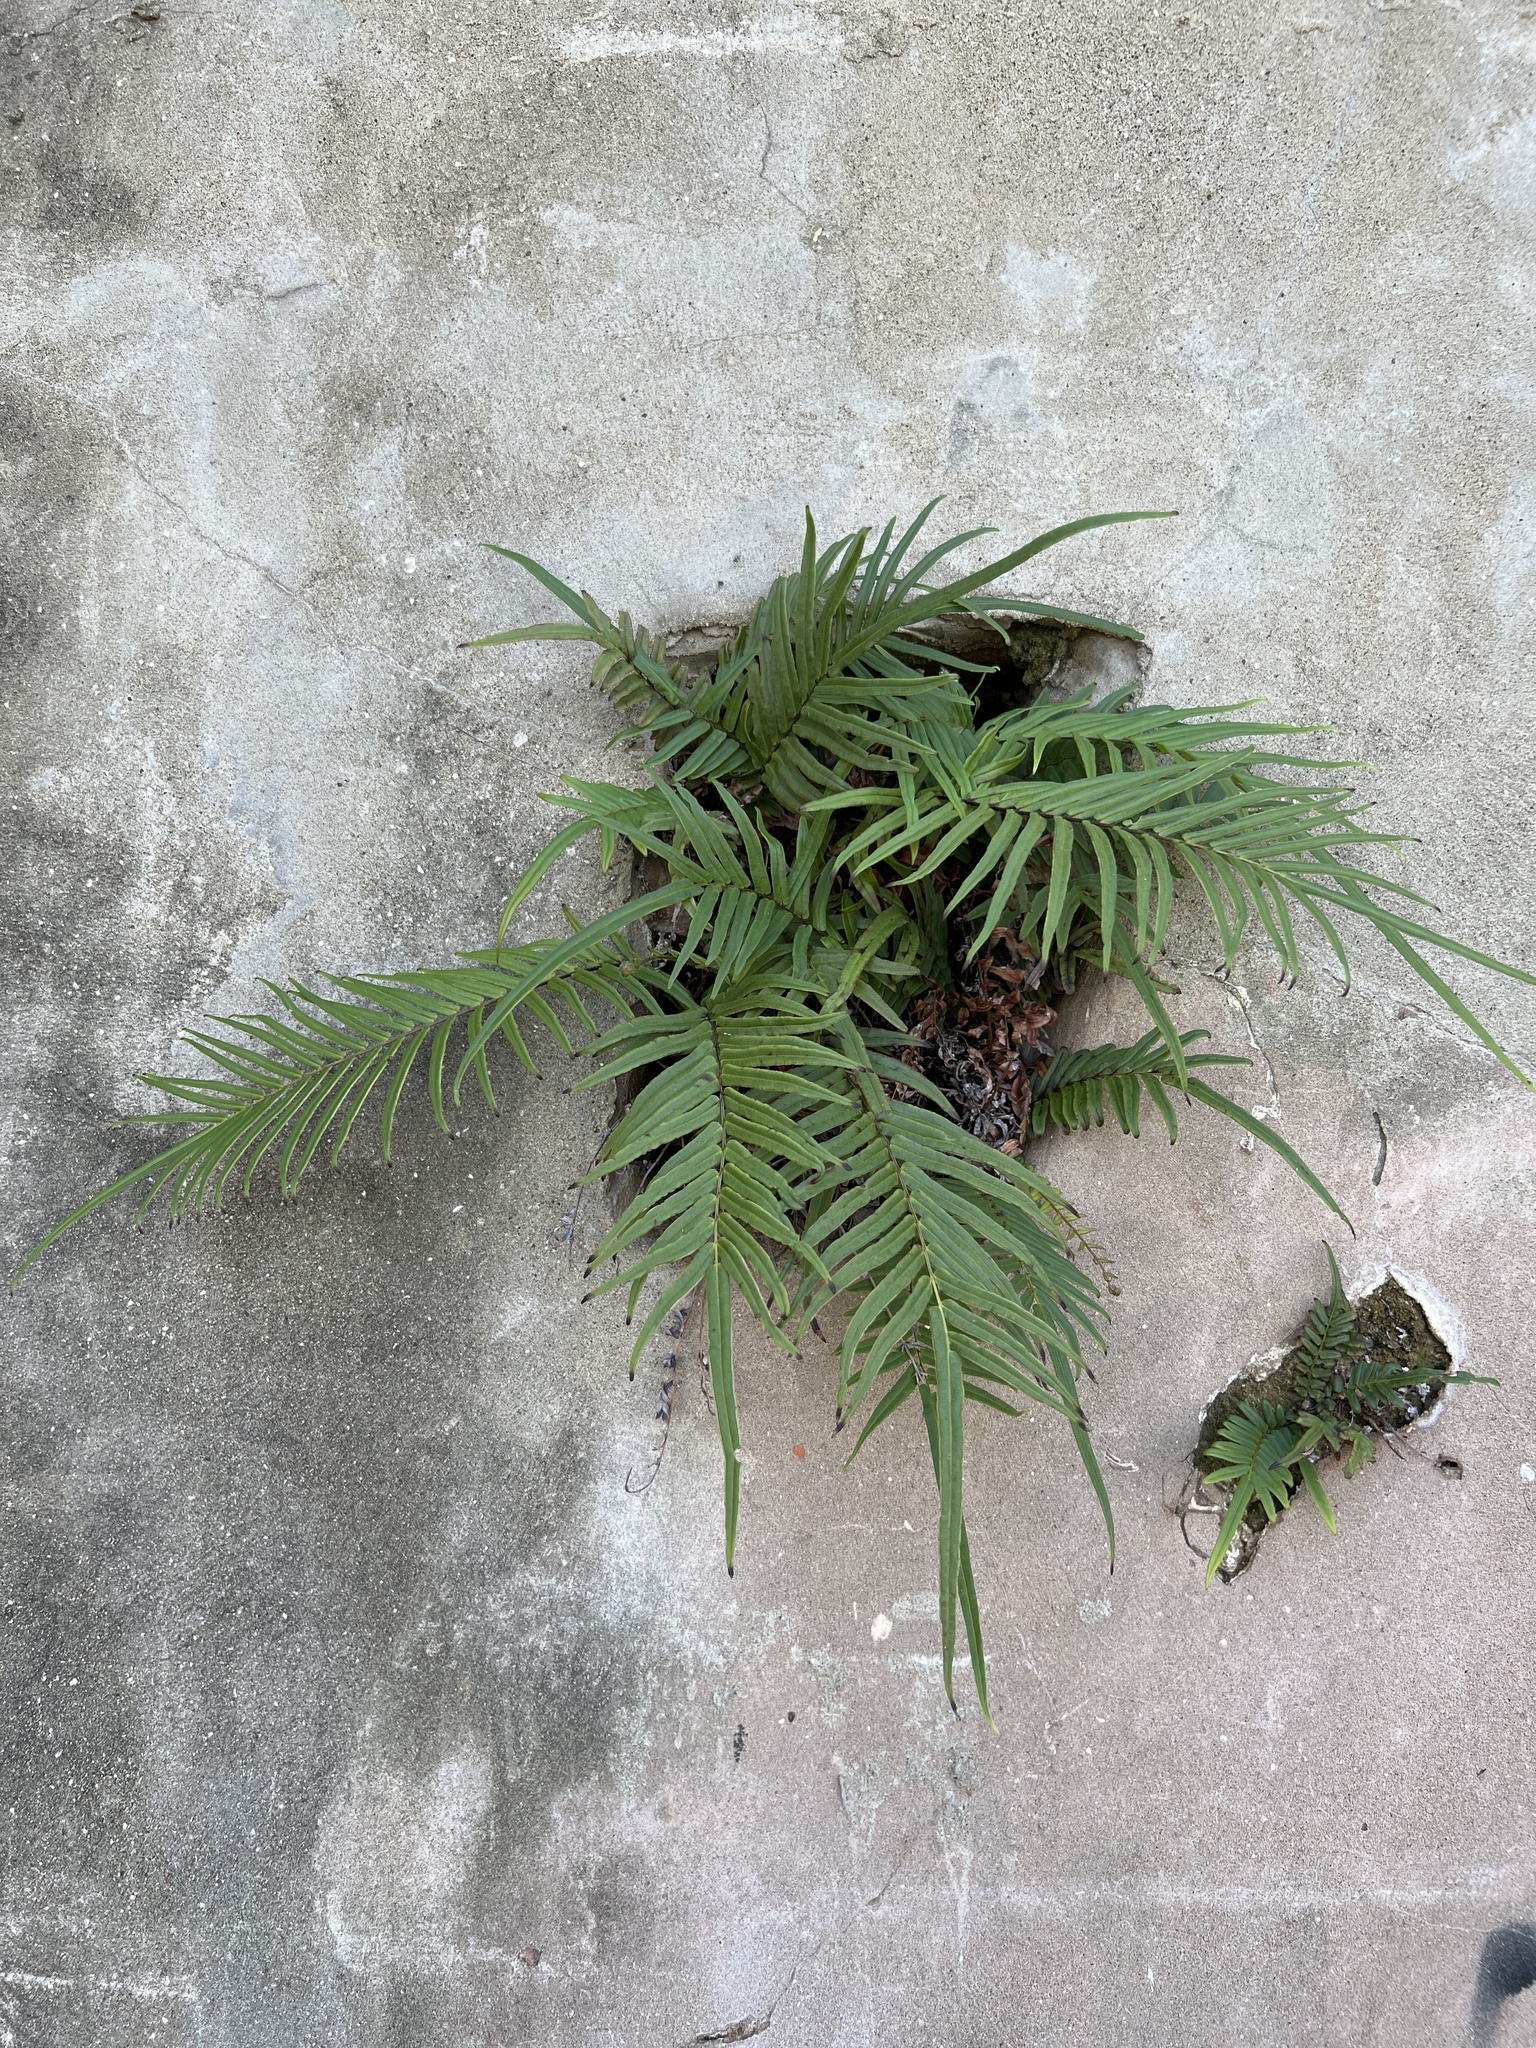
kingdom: Plantae
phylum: Tracheophyta
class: Polypodiopsida
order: Polypodiales
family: Pteridaceae
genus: Pteris
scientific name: Pteris vittata
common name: Ladder brake
